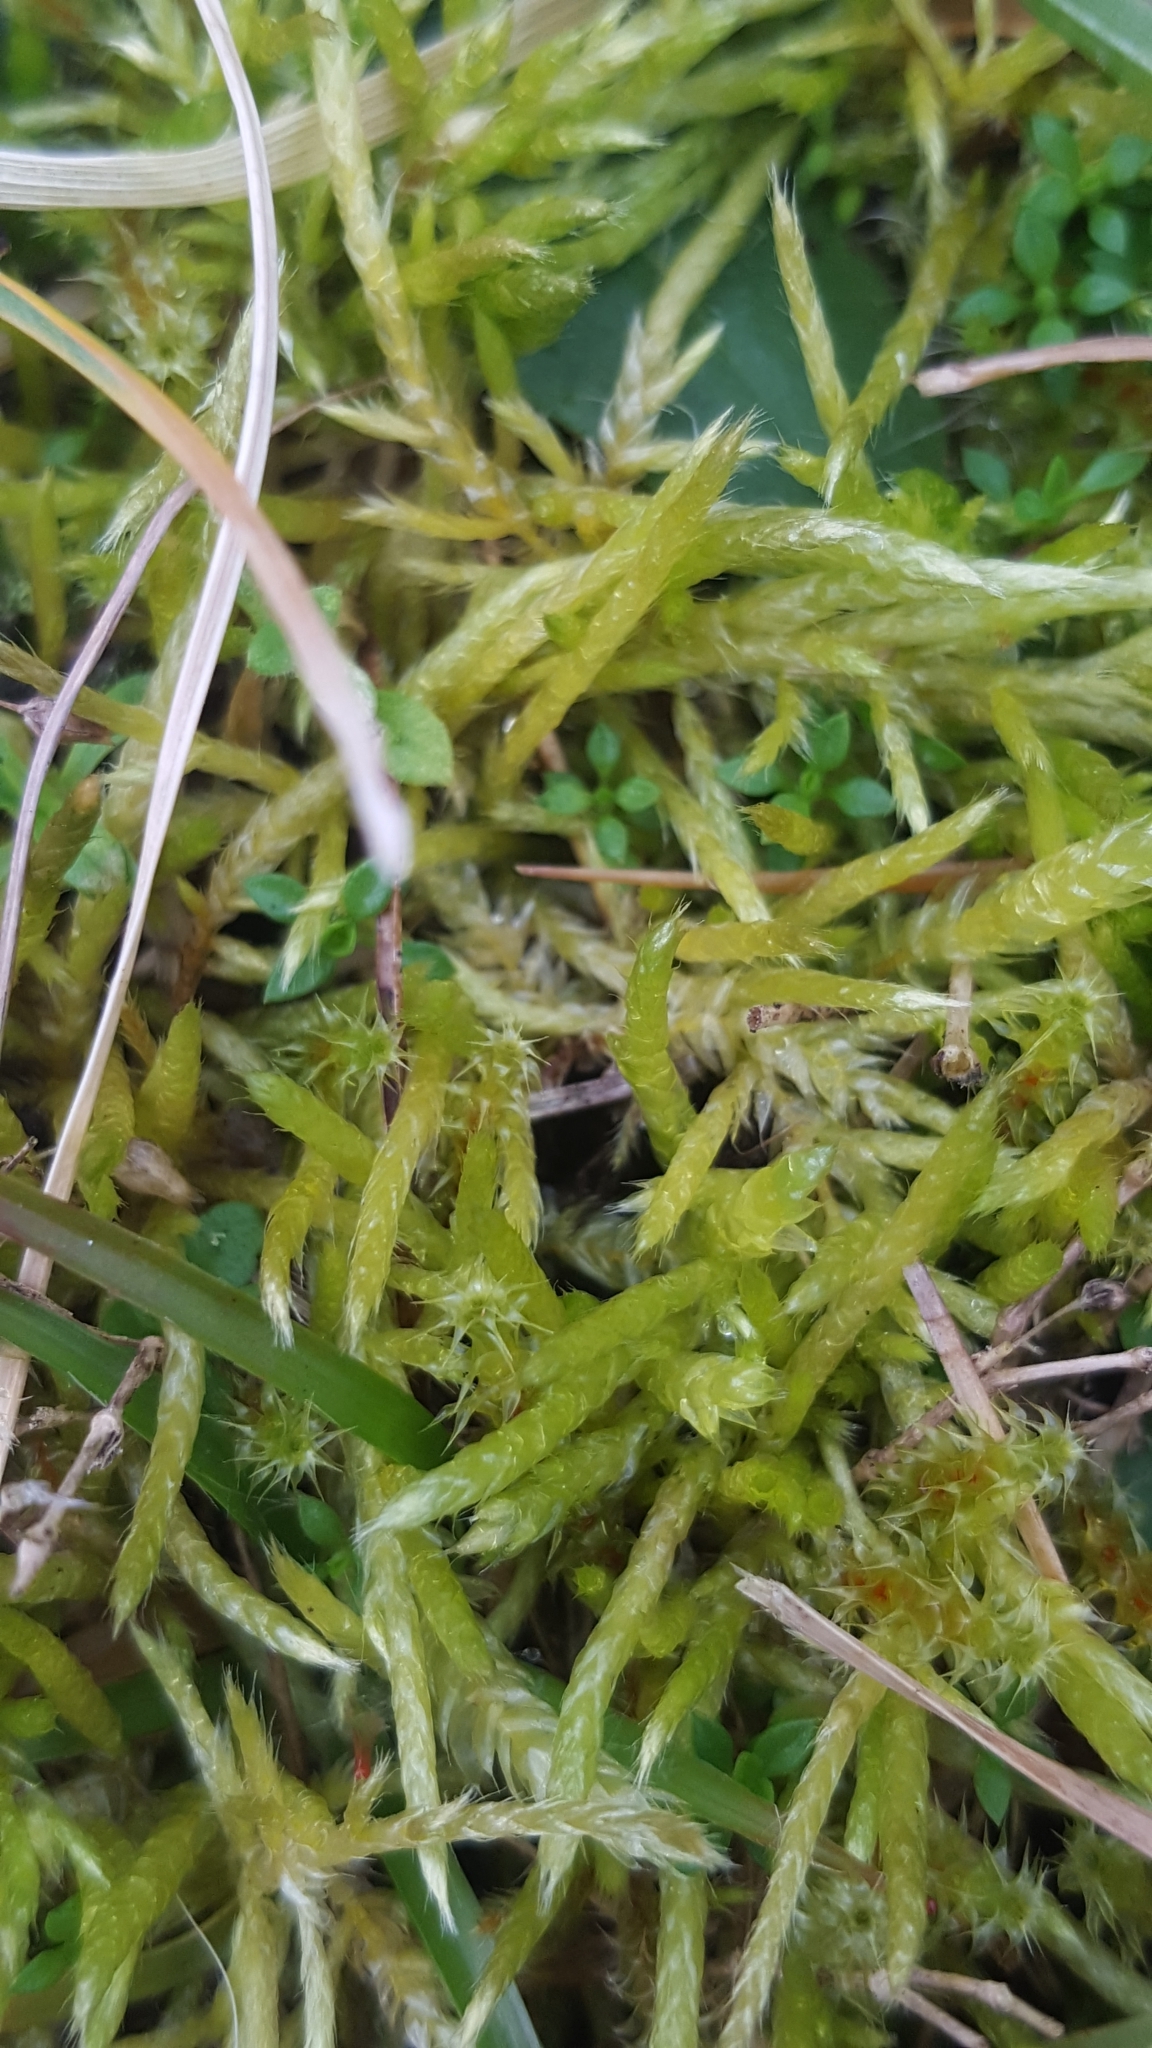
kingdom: Plantae
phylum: Bryophyta
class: Bryopsida
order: Hypnales
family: Brachytheciaceae
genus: Brachythecium
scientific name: Brachythecium albicans
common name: Whitish ragged moss
